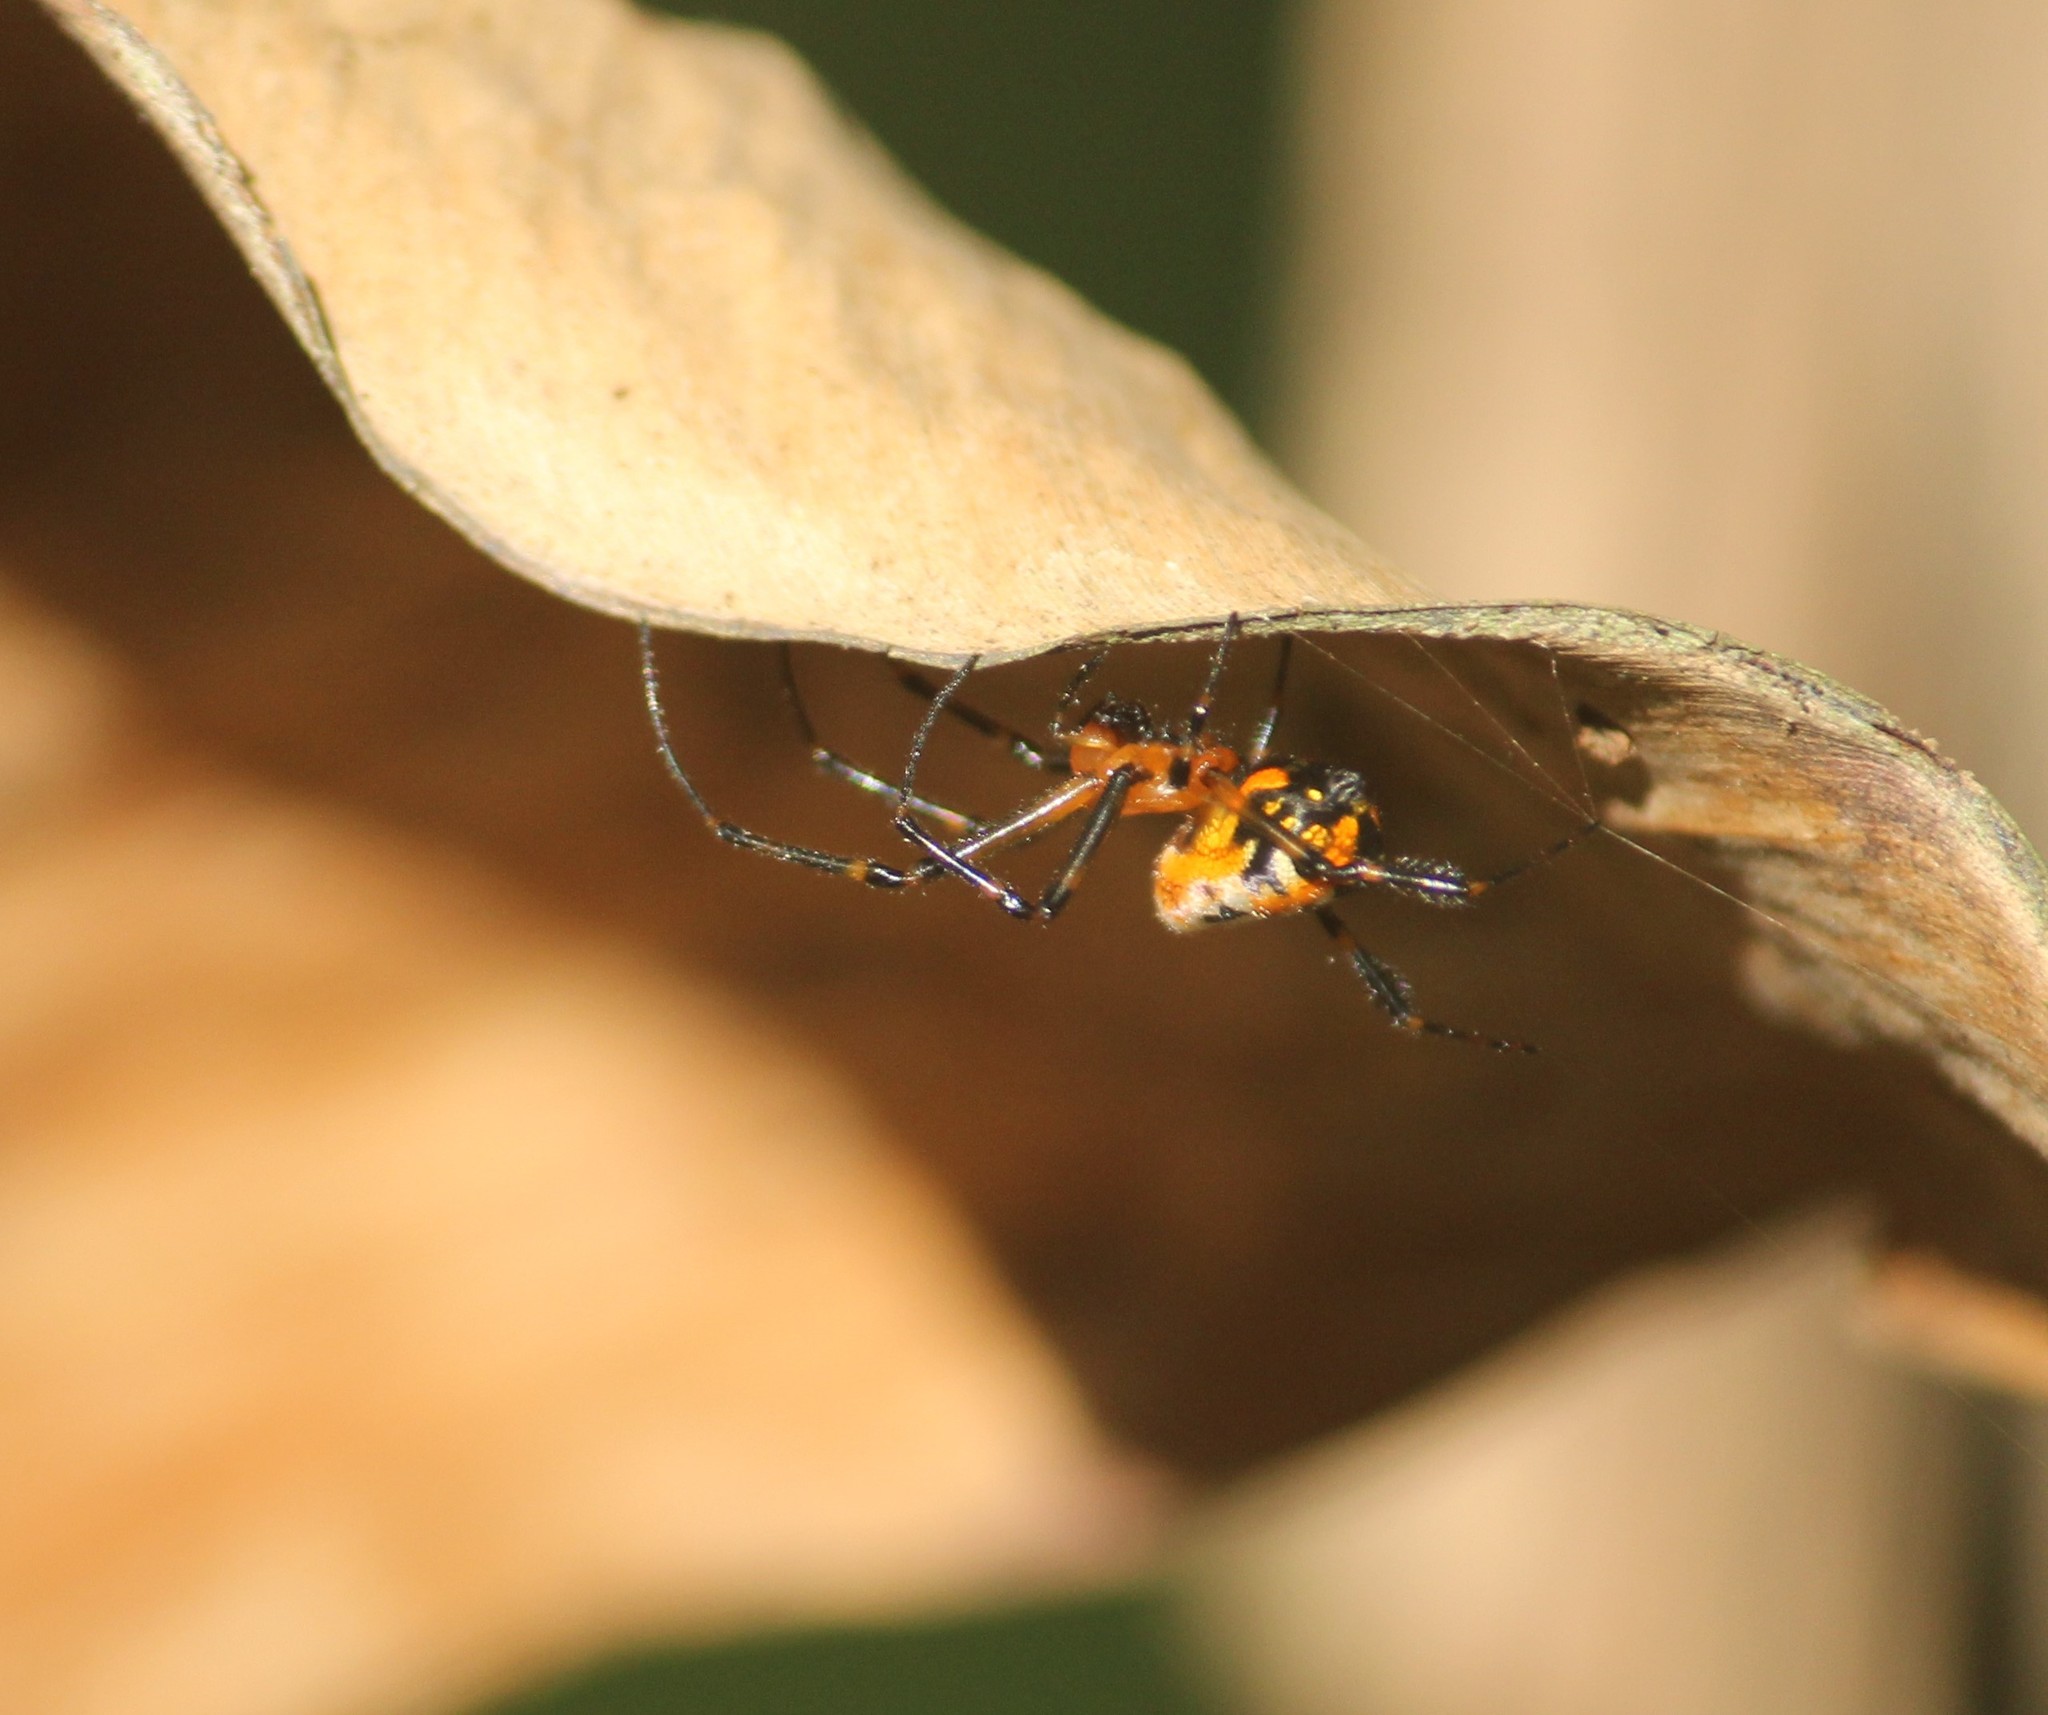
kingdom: Animalia
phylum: Arthropoda
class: Arachnida
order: Araneae
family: Tetragnathidae
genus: Leucauge
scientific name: Leucauge fastigata
